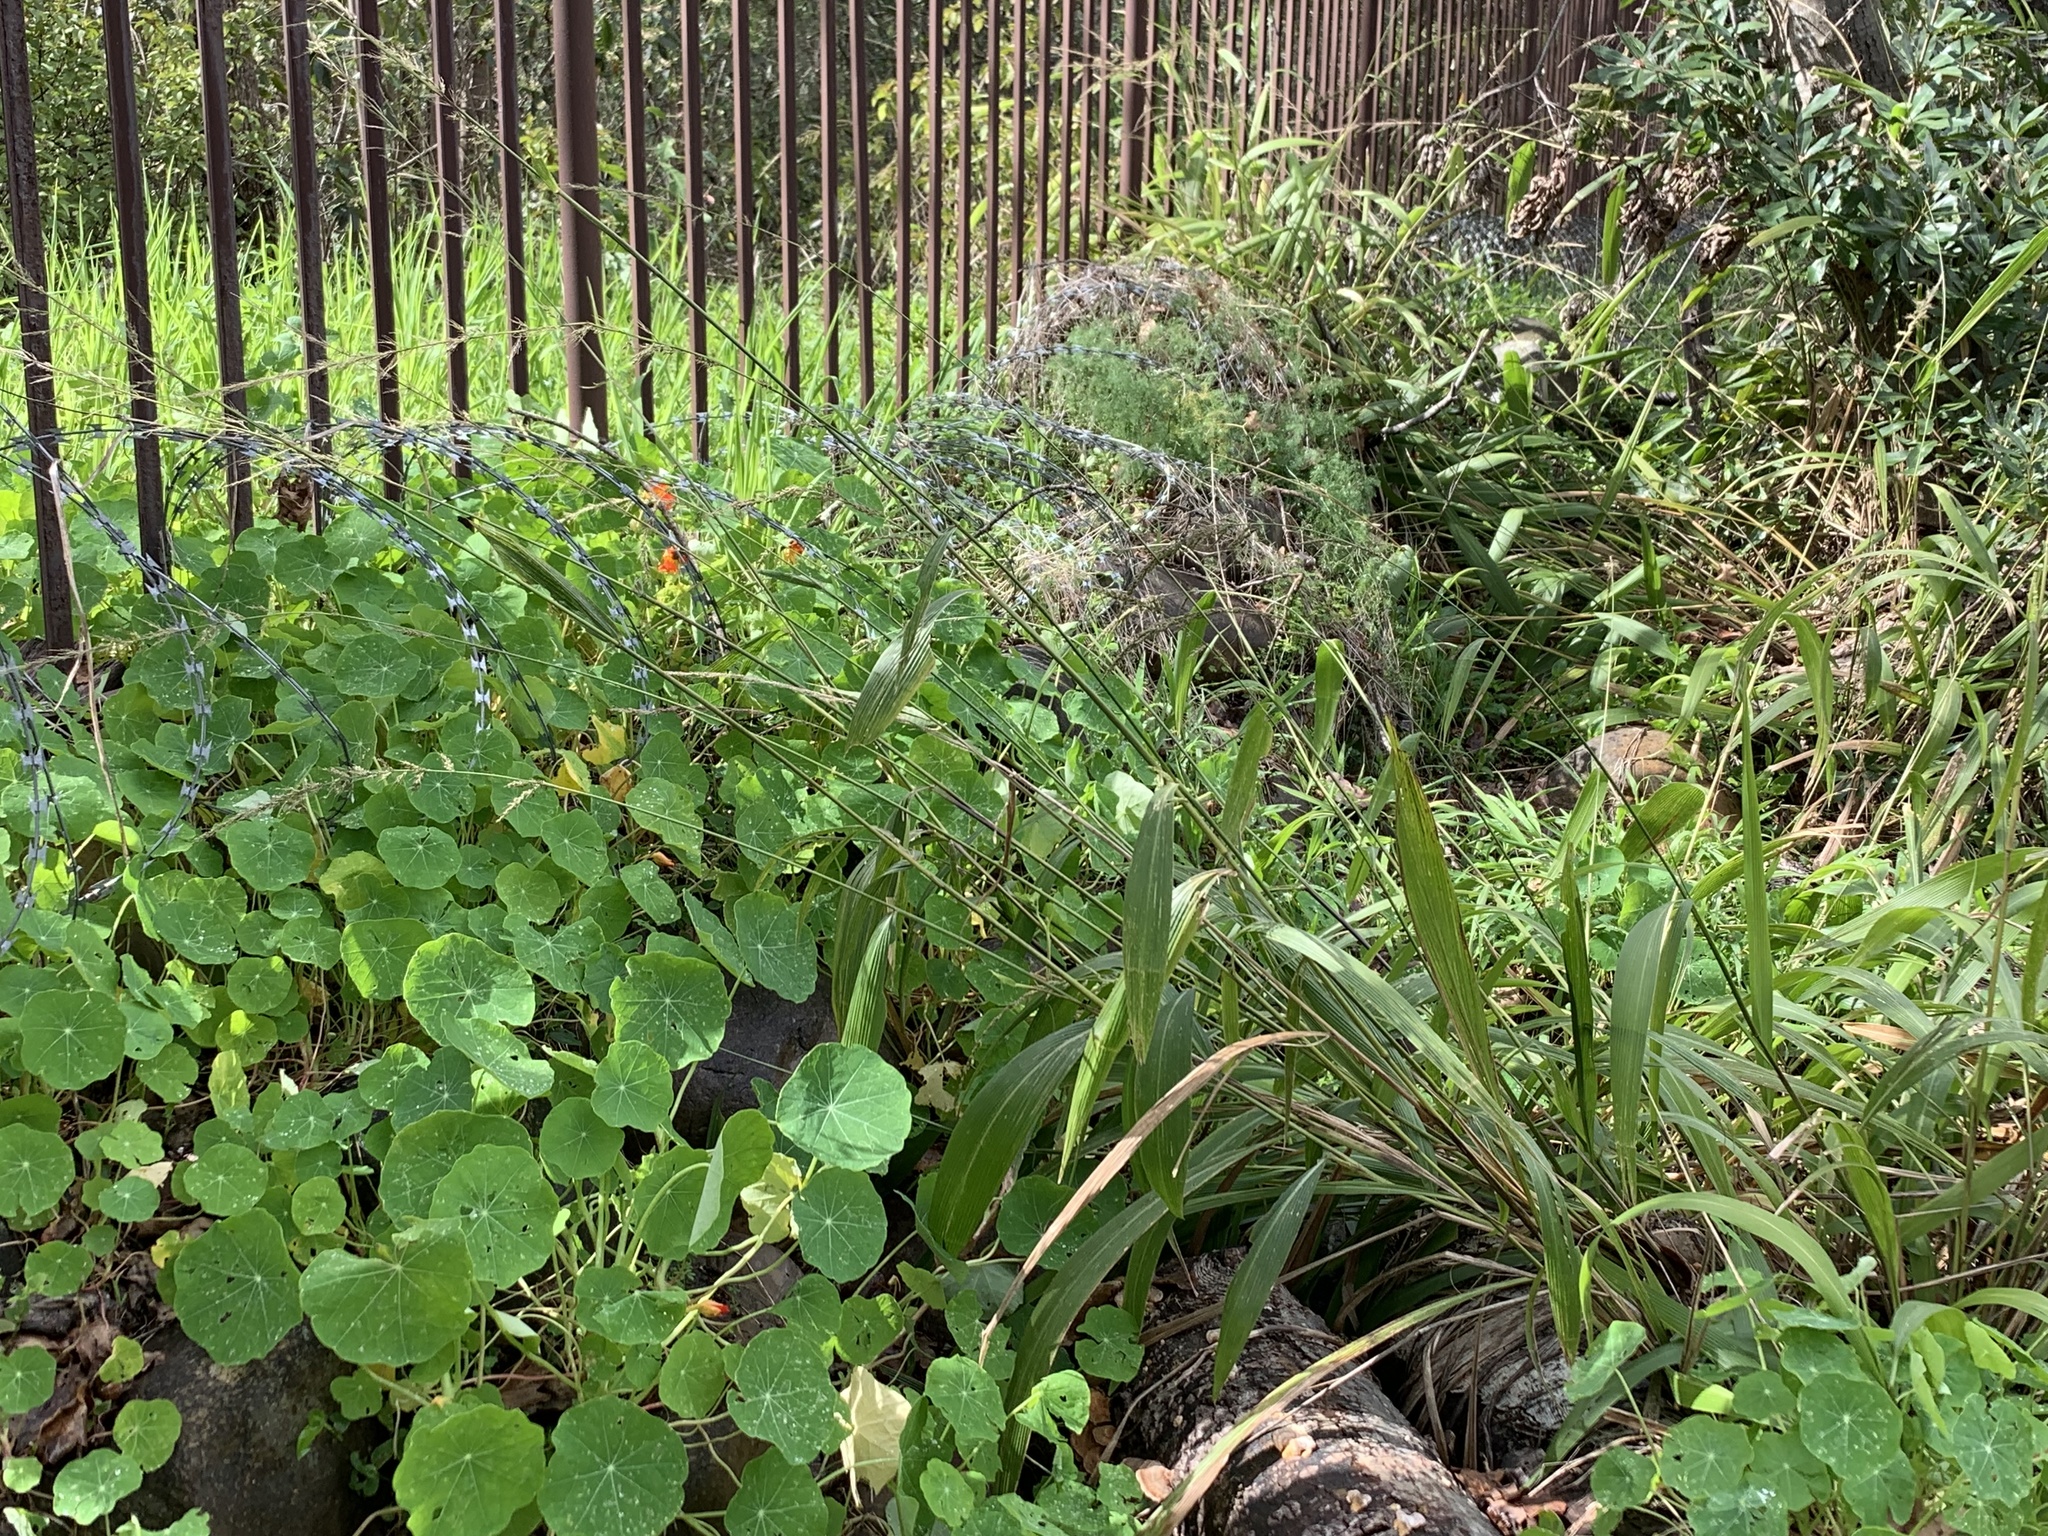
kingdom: Plantae
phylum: Tracheophyta
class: Liliopsida
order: Poales
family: Poaceae
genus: Setaria
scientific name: Setaria megaphylla
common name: Bigleaf bristlegrass
